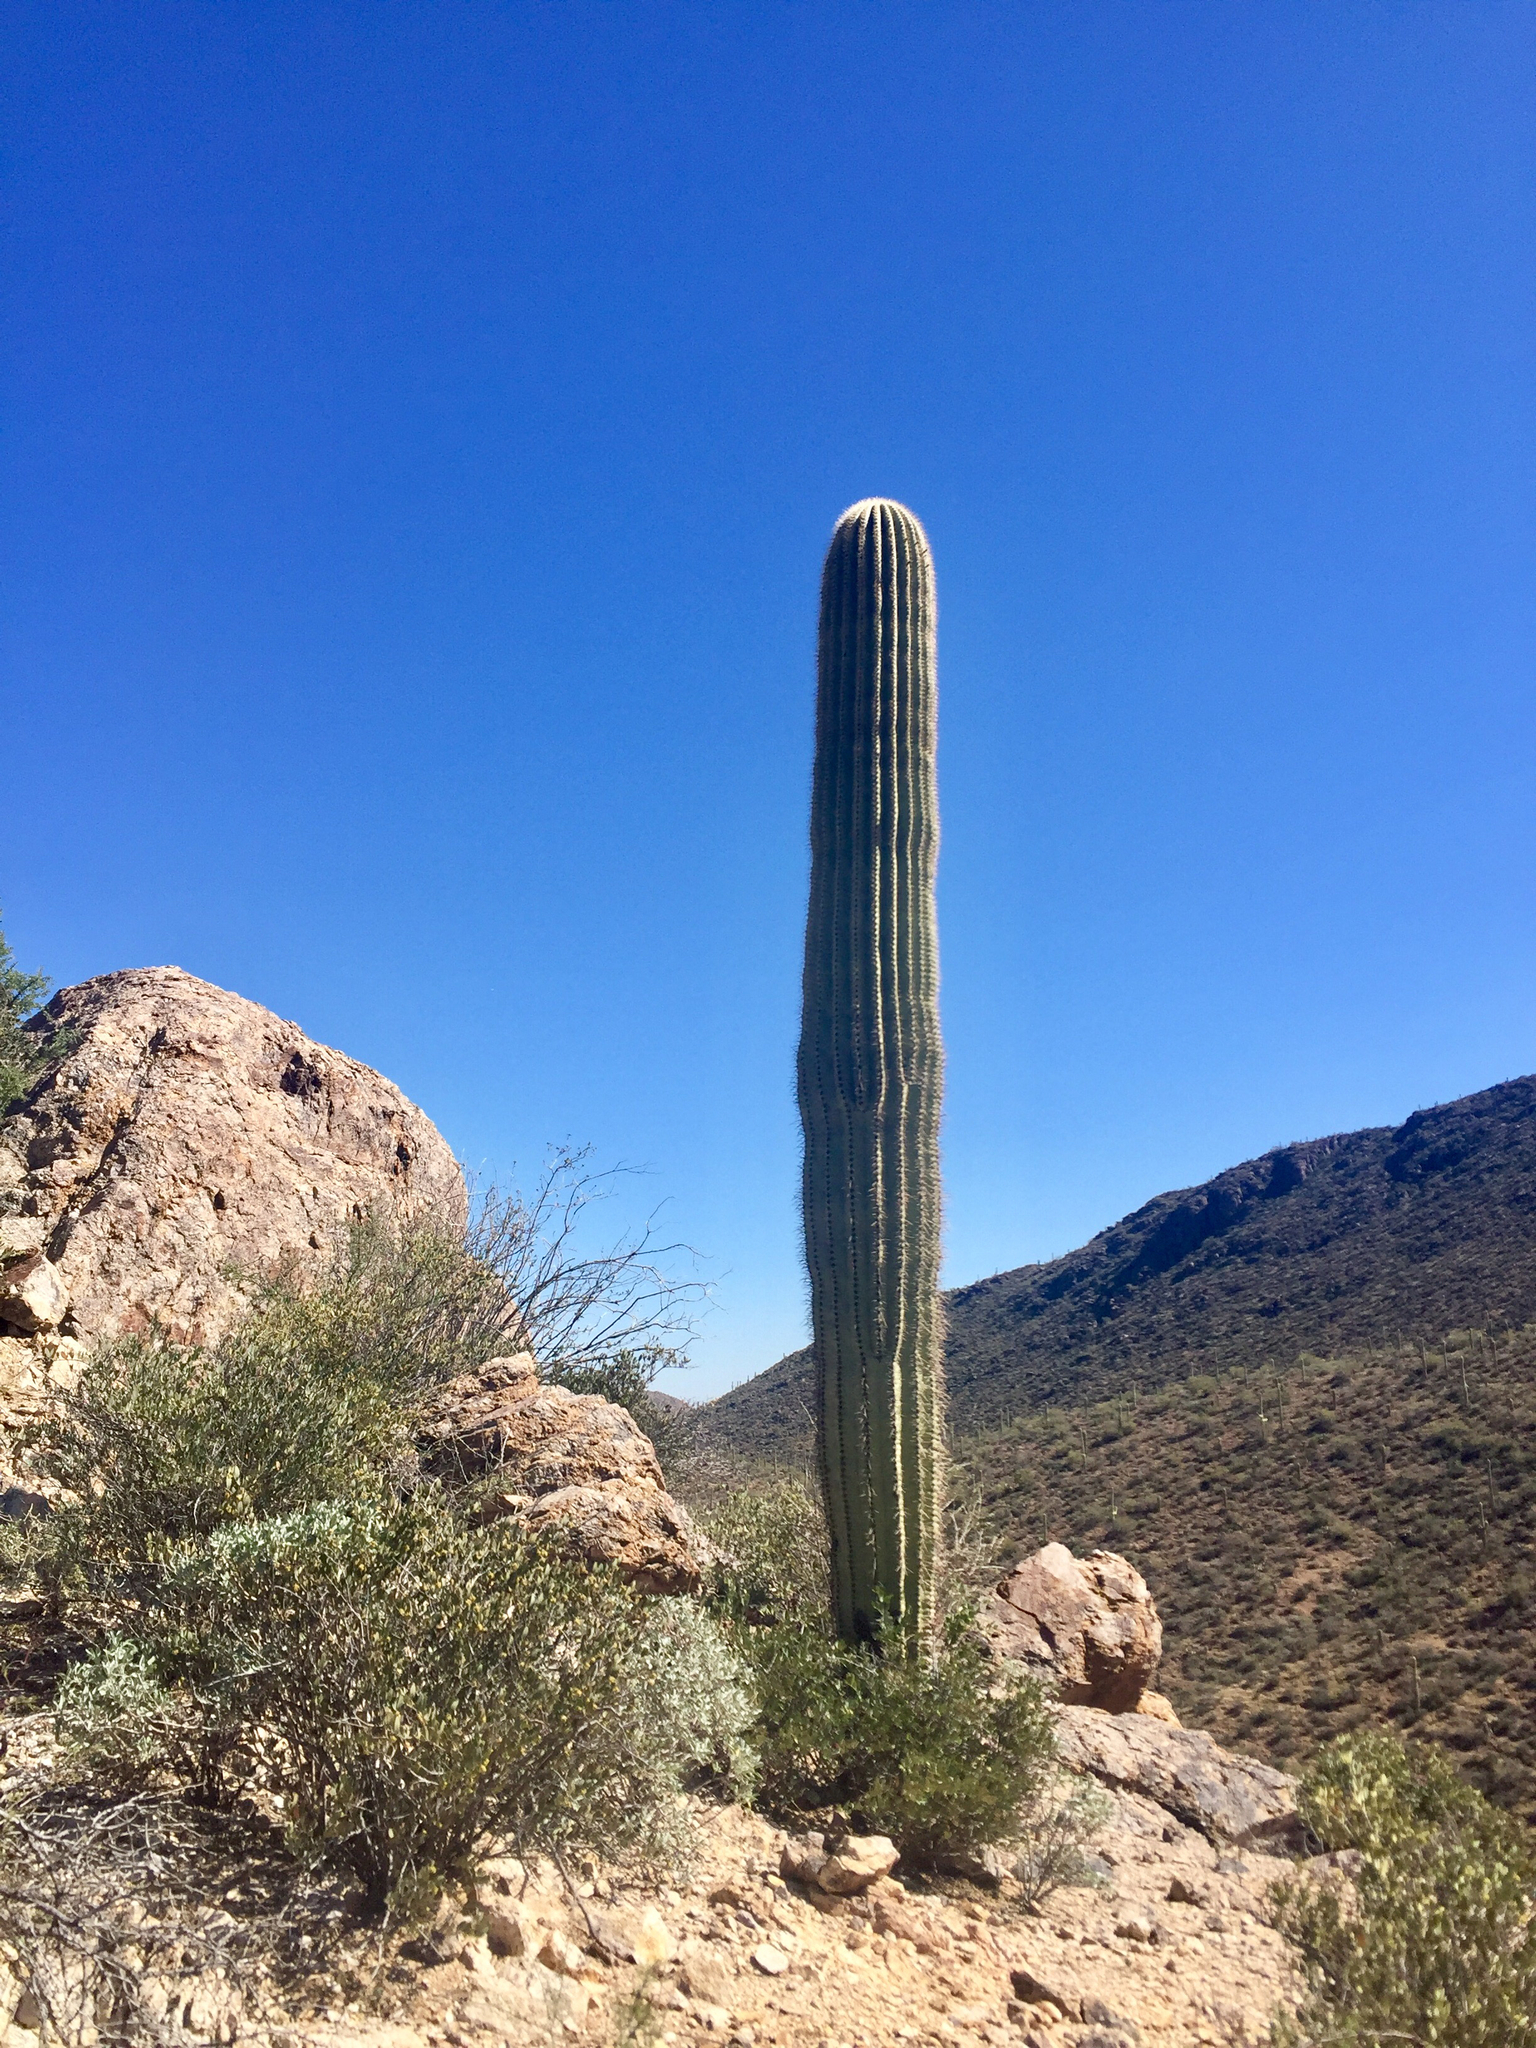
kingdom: Plantae
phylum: Tracheophyta
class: Magnoliopsida
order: Caryophyllales
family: Cactaceae
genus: Carnegiea
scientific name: Carnegiea gigantea
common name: Saguaro
